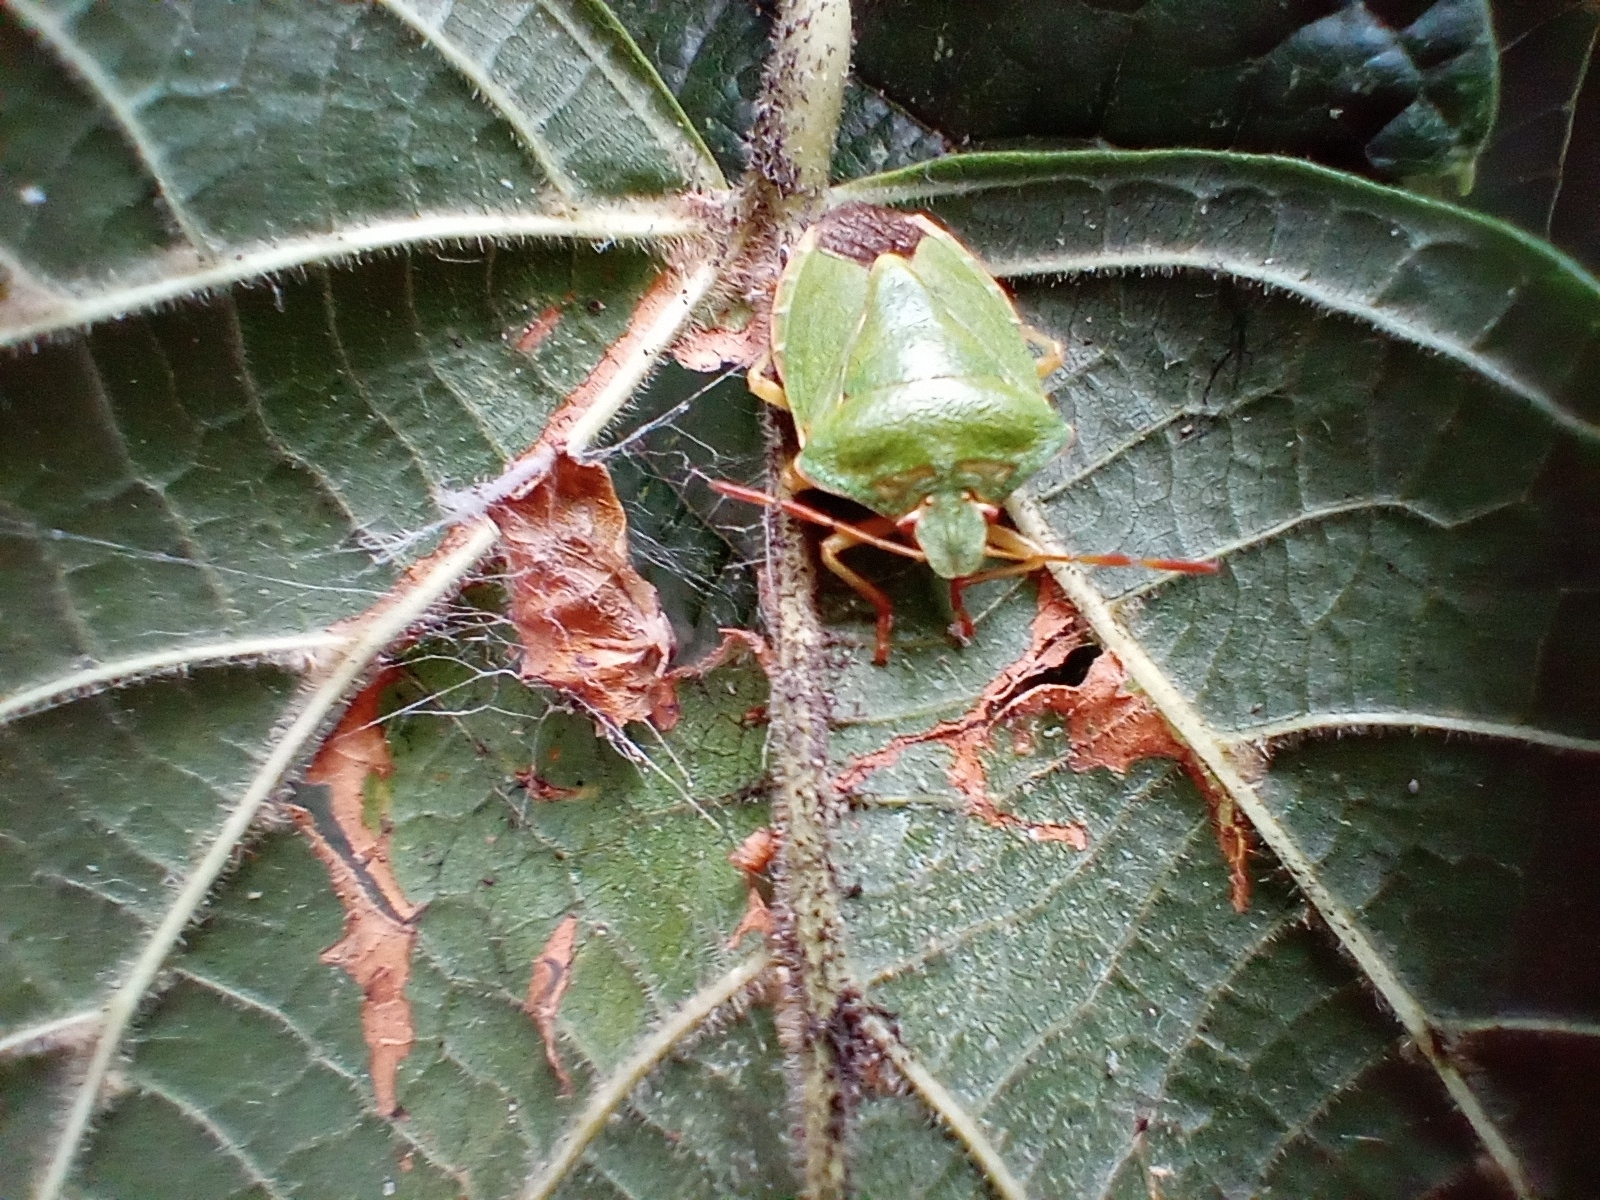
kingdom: Animalia
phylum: Arthropoda
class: Insecta
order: Hemiptera
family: Pentatomidae
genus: Palomena
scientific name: Palomena prasina
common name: Green shieldbug
